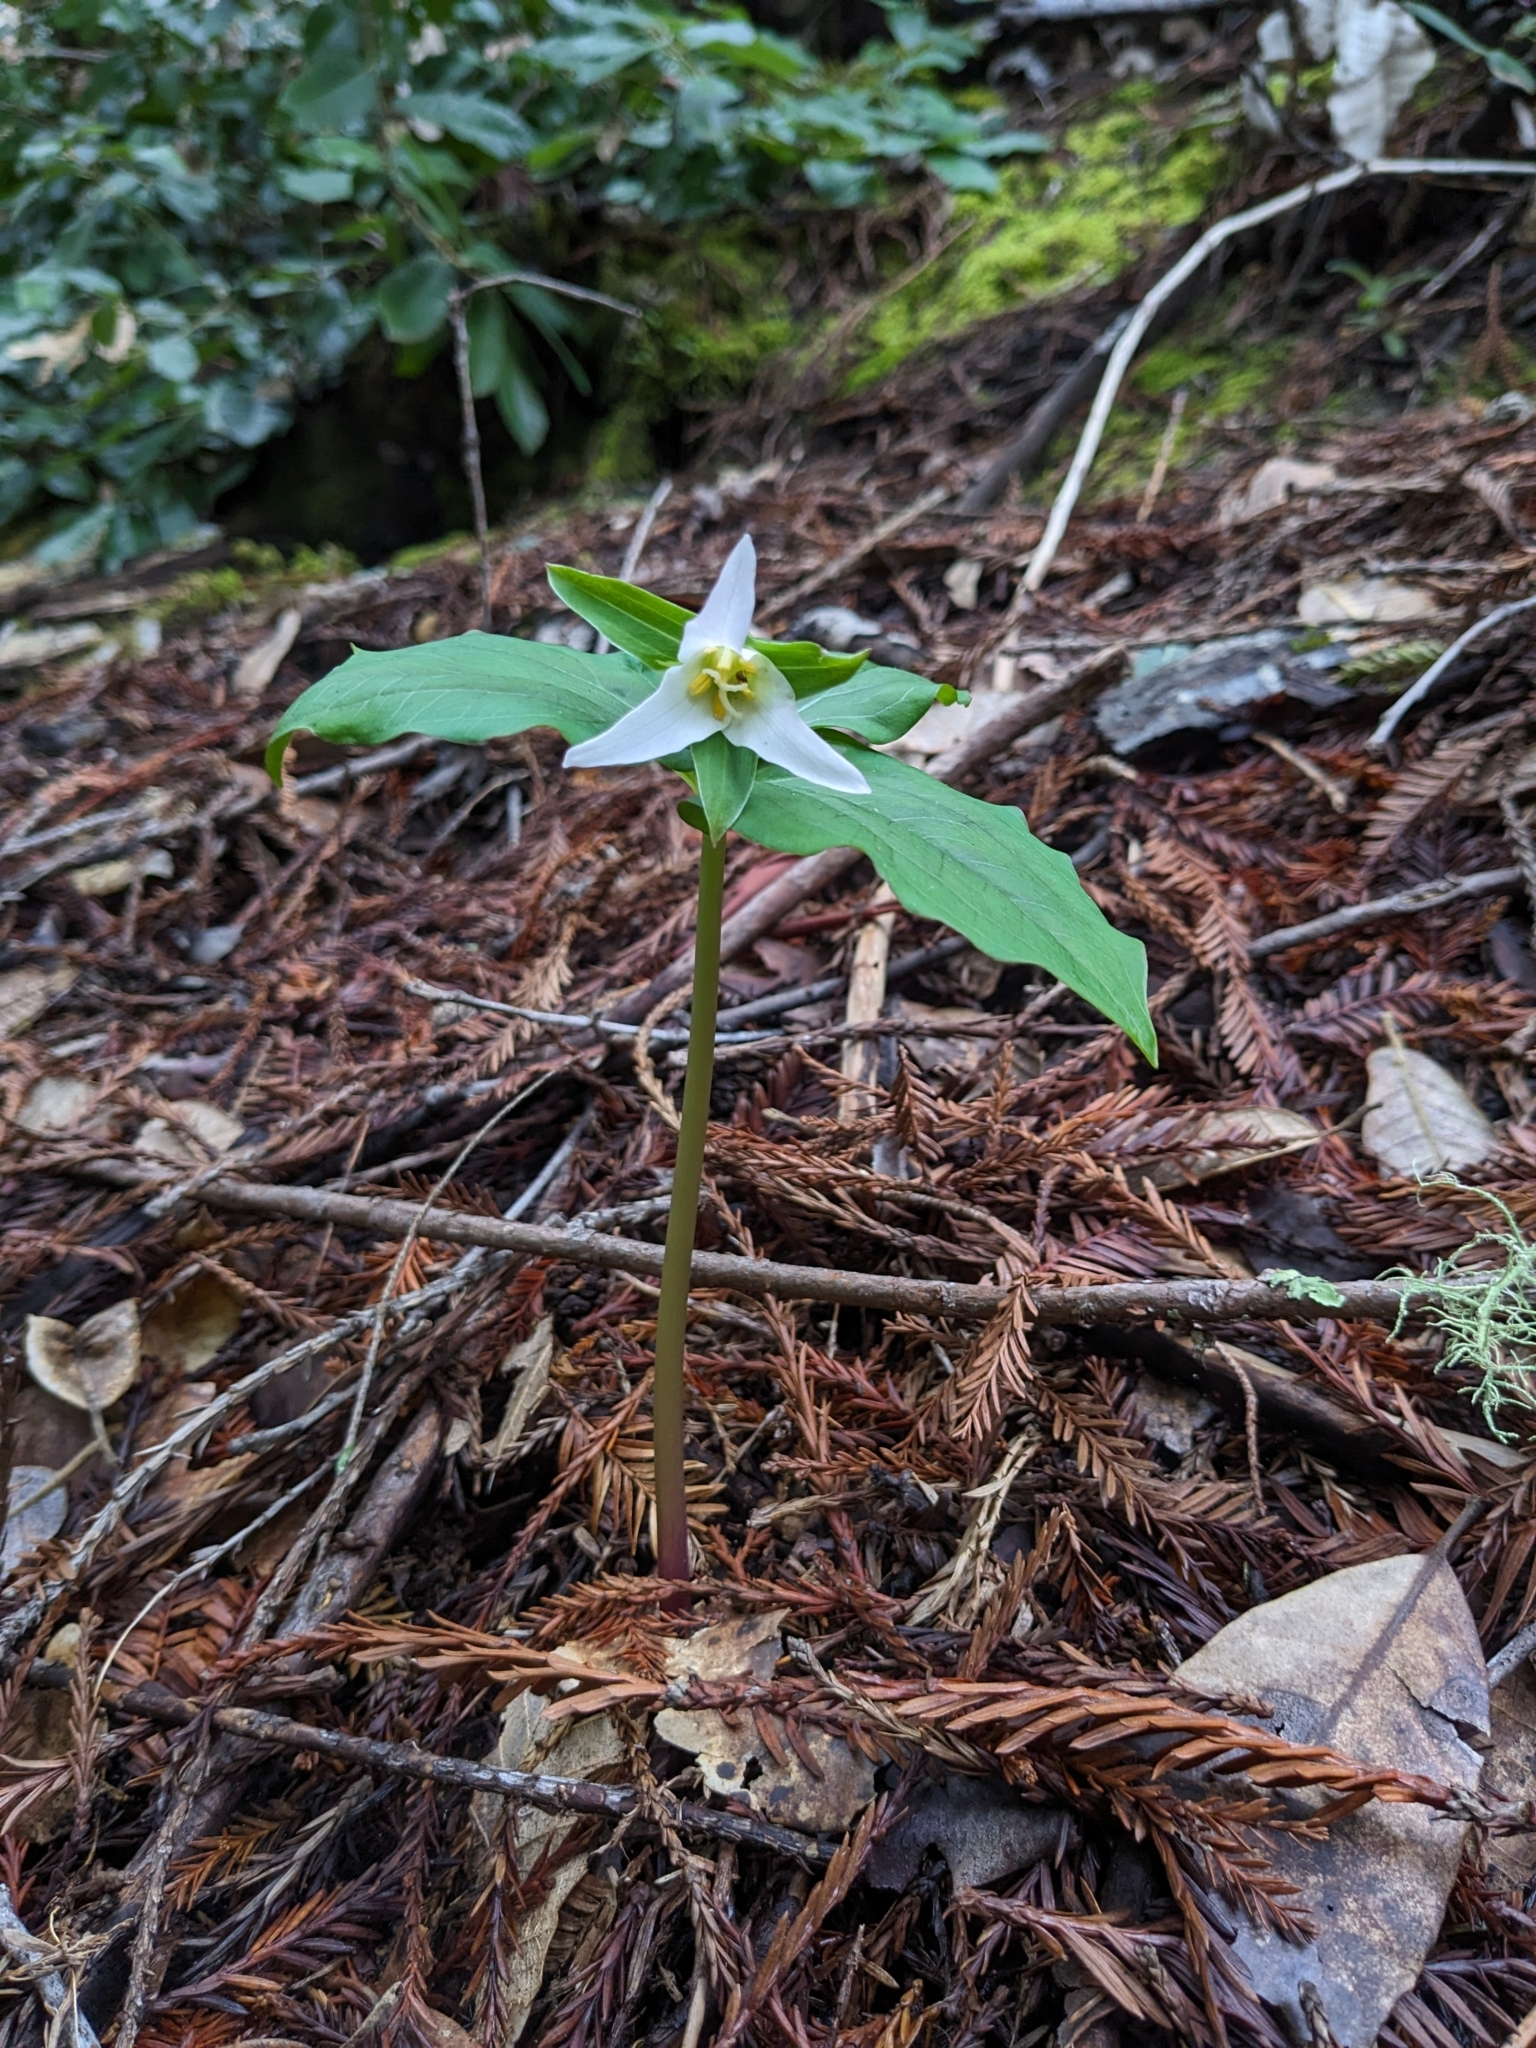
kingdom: Plantae
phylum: Tracheophyta
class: Liliopsida
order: Liliales
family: Melanthiaceae
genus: Trillium
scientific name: Trillium ovatum
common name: Pacific trillium
